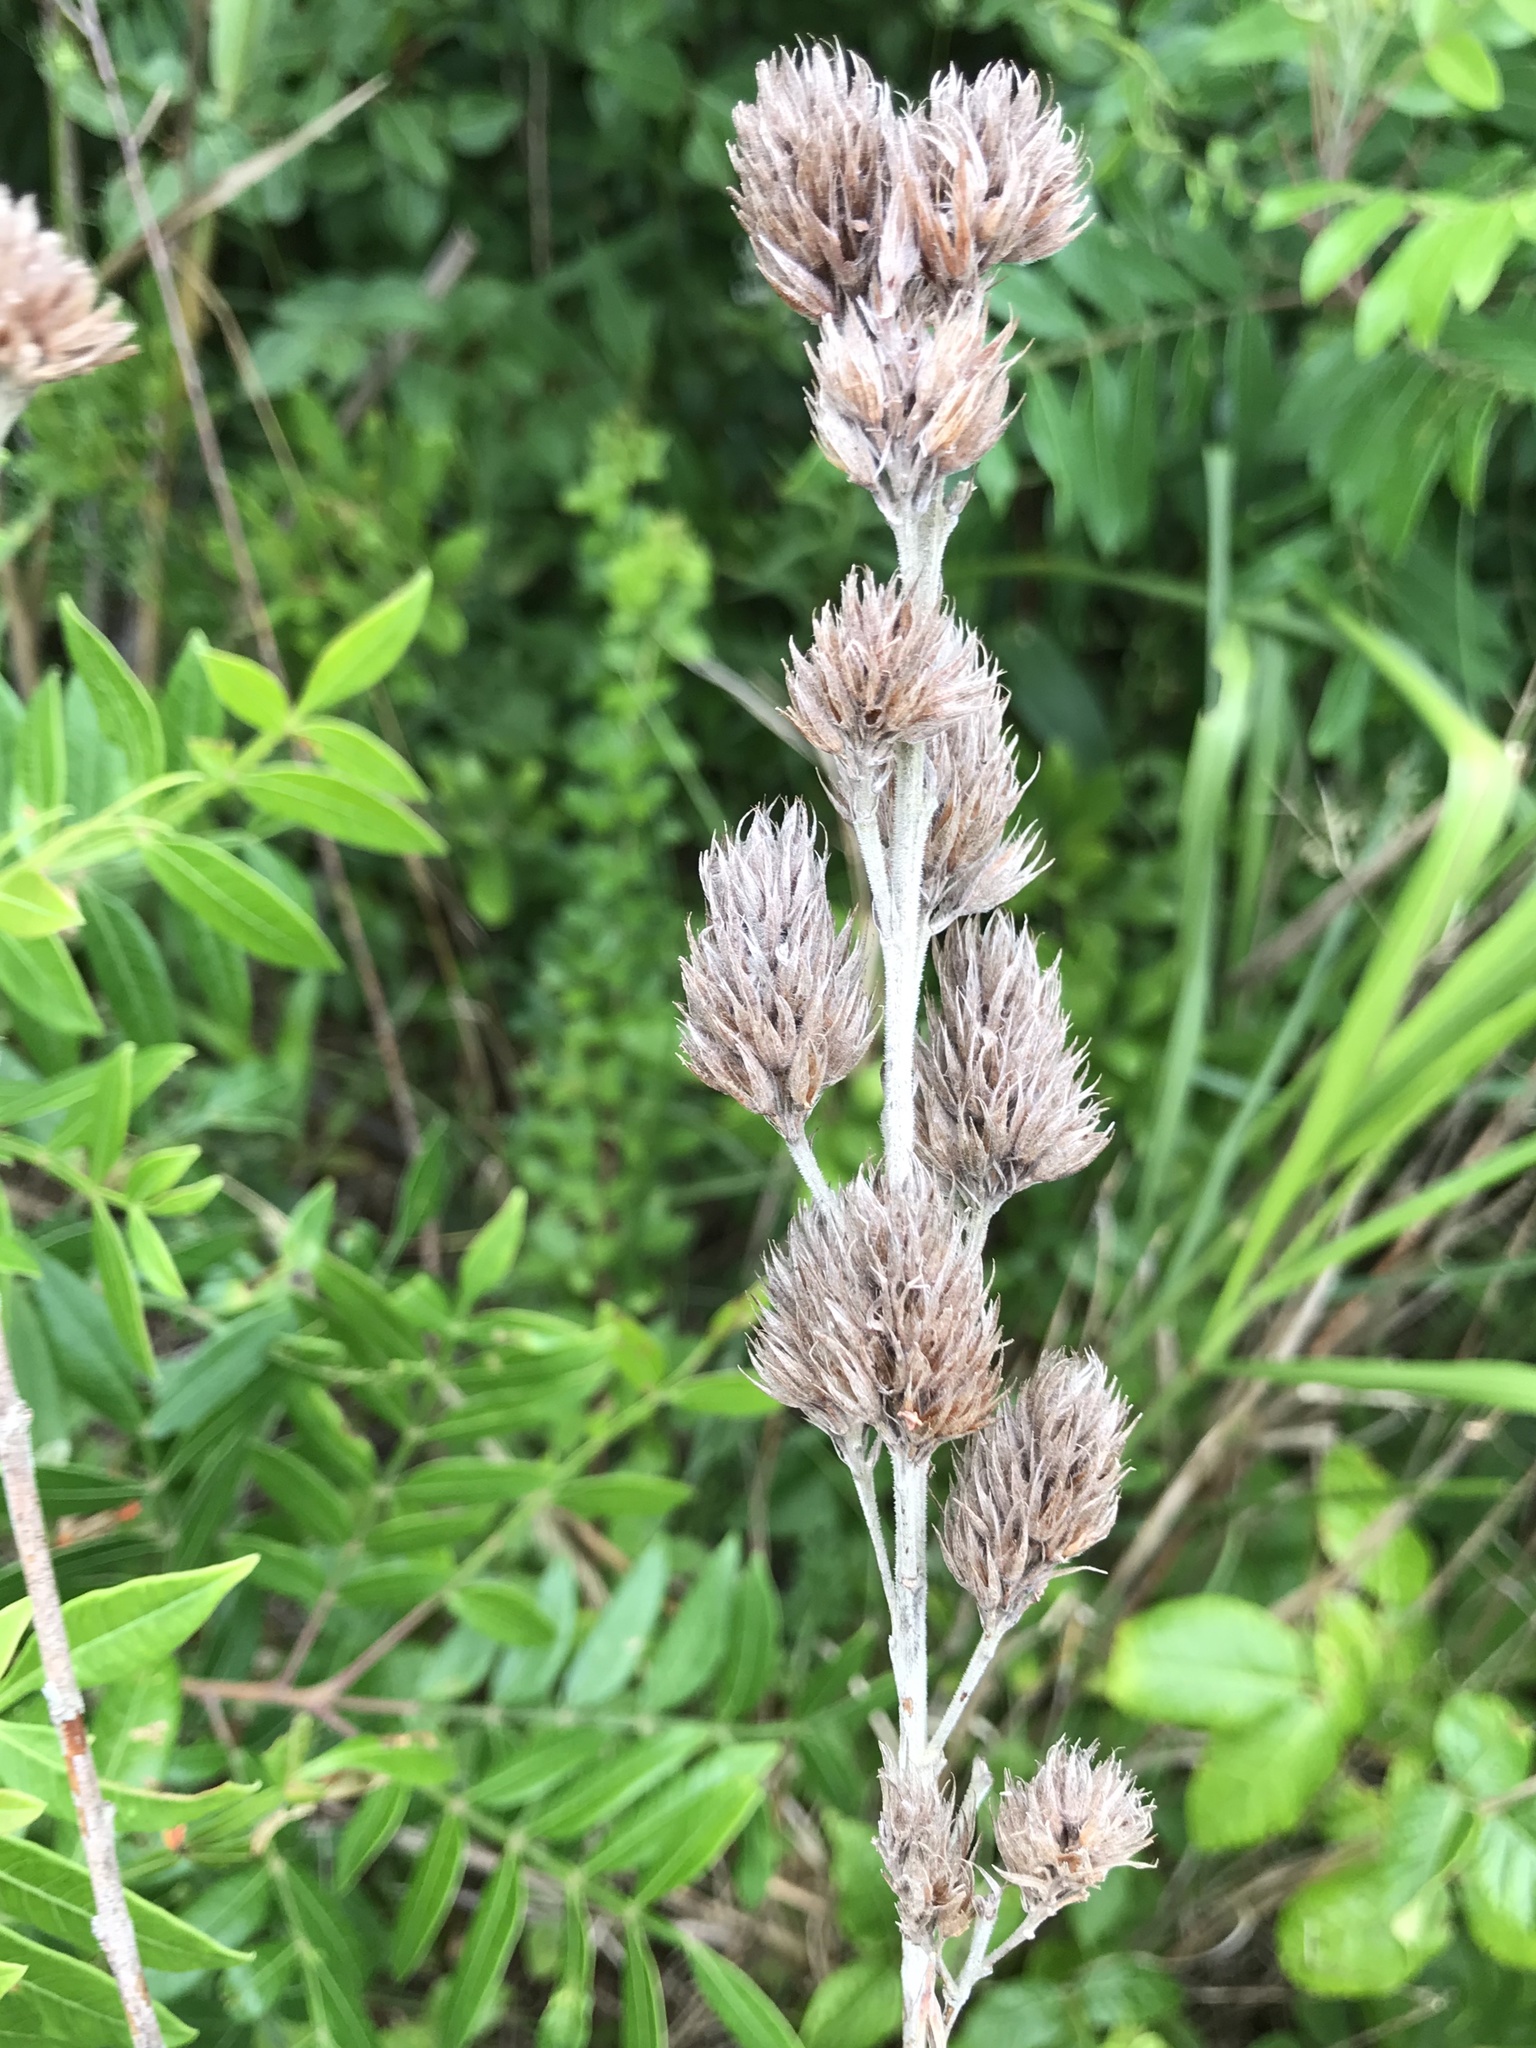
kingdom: Plantae
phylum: Tracheophyta
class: Magnoliopsida
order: Fabales
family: Fabaceae
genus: Lespedeza
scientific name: Lespedeza capitata
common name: Dusty clover
